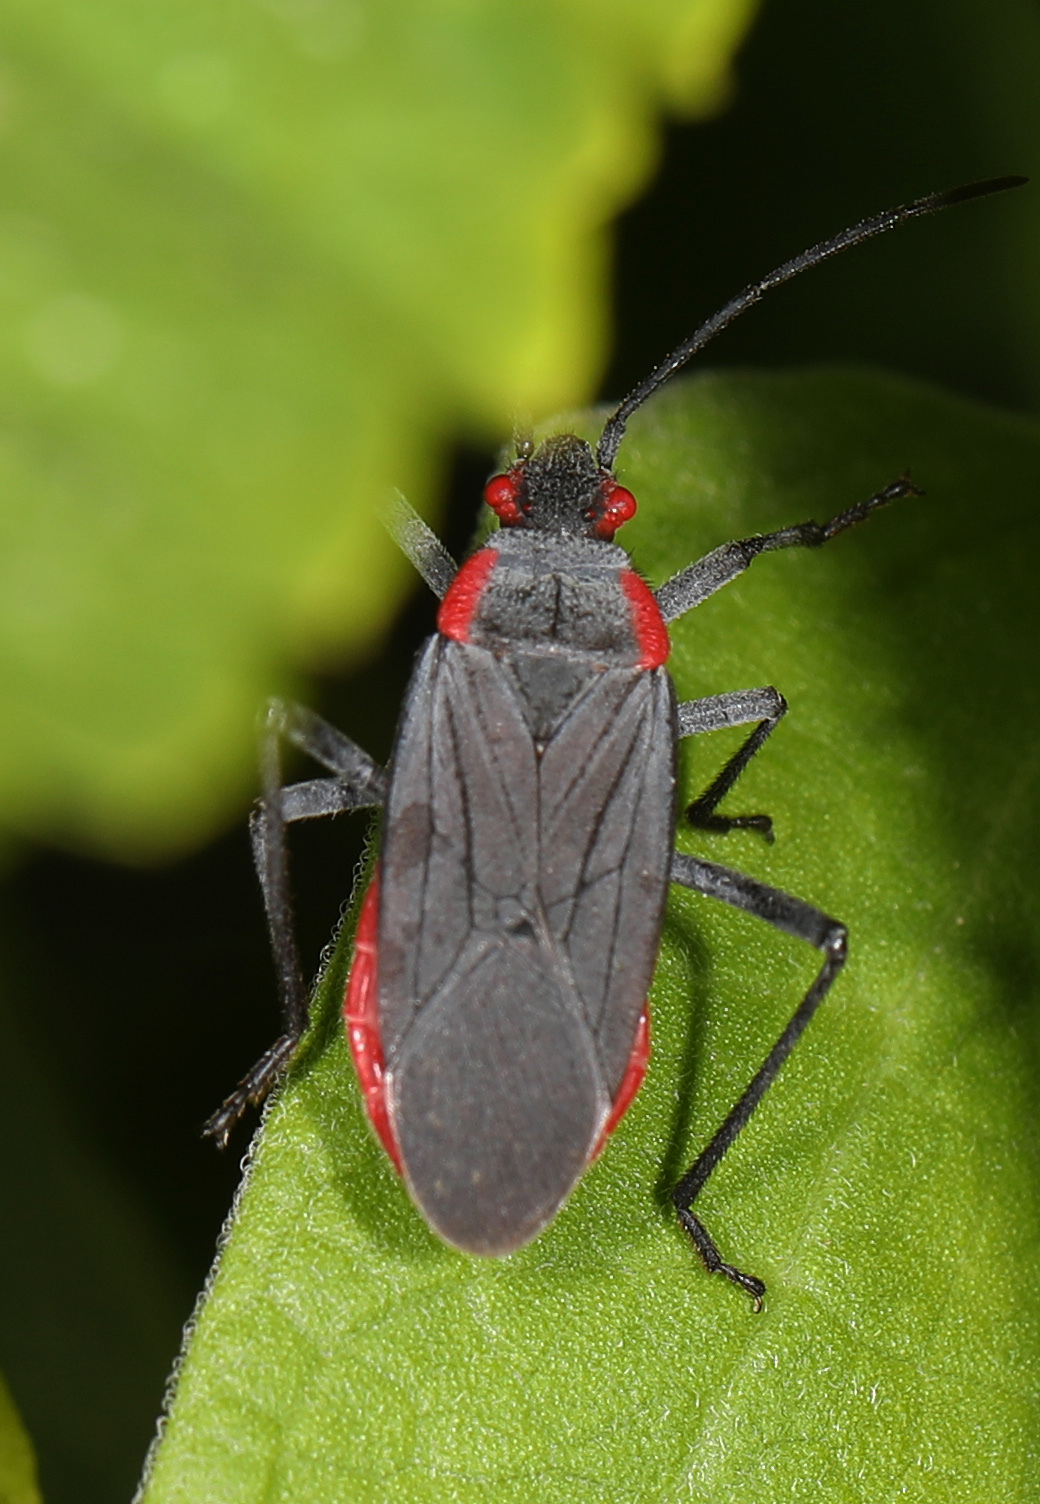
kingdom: Animalia
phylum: Arthropoda
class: Insecta
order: Hemiptera
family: Rhopalidae
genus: Jadera
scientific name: Jadera haematoloma
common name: Red-shouldered bug
